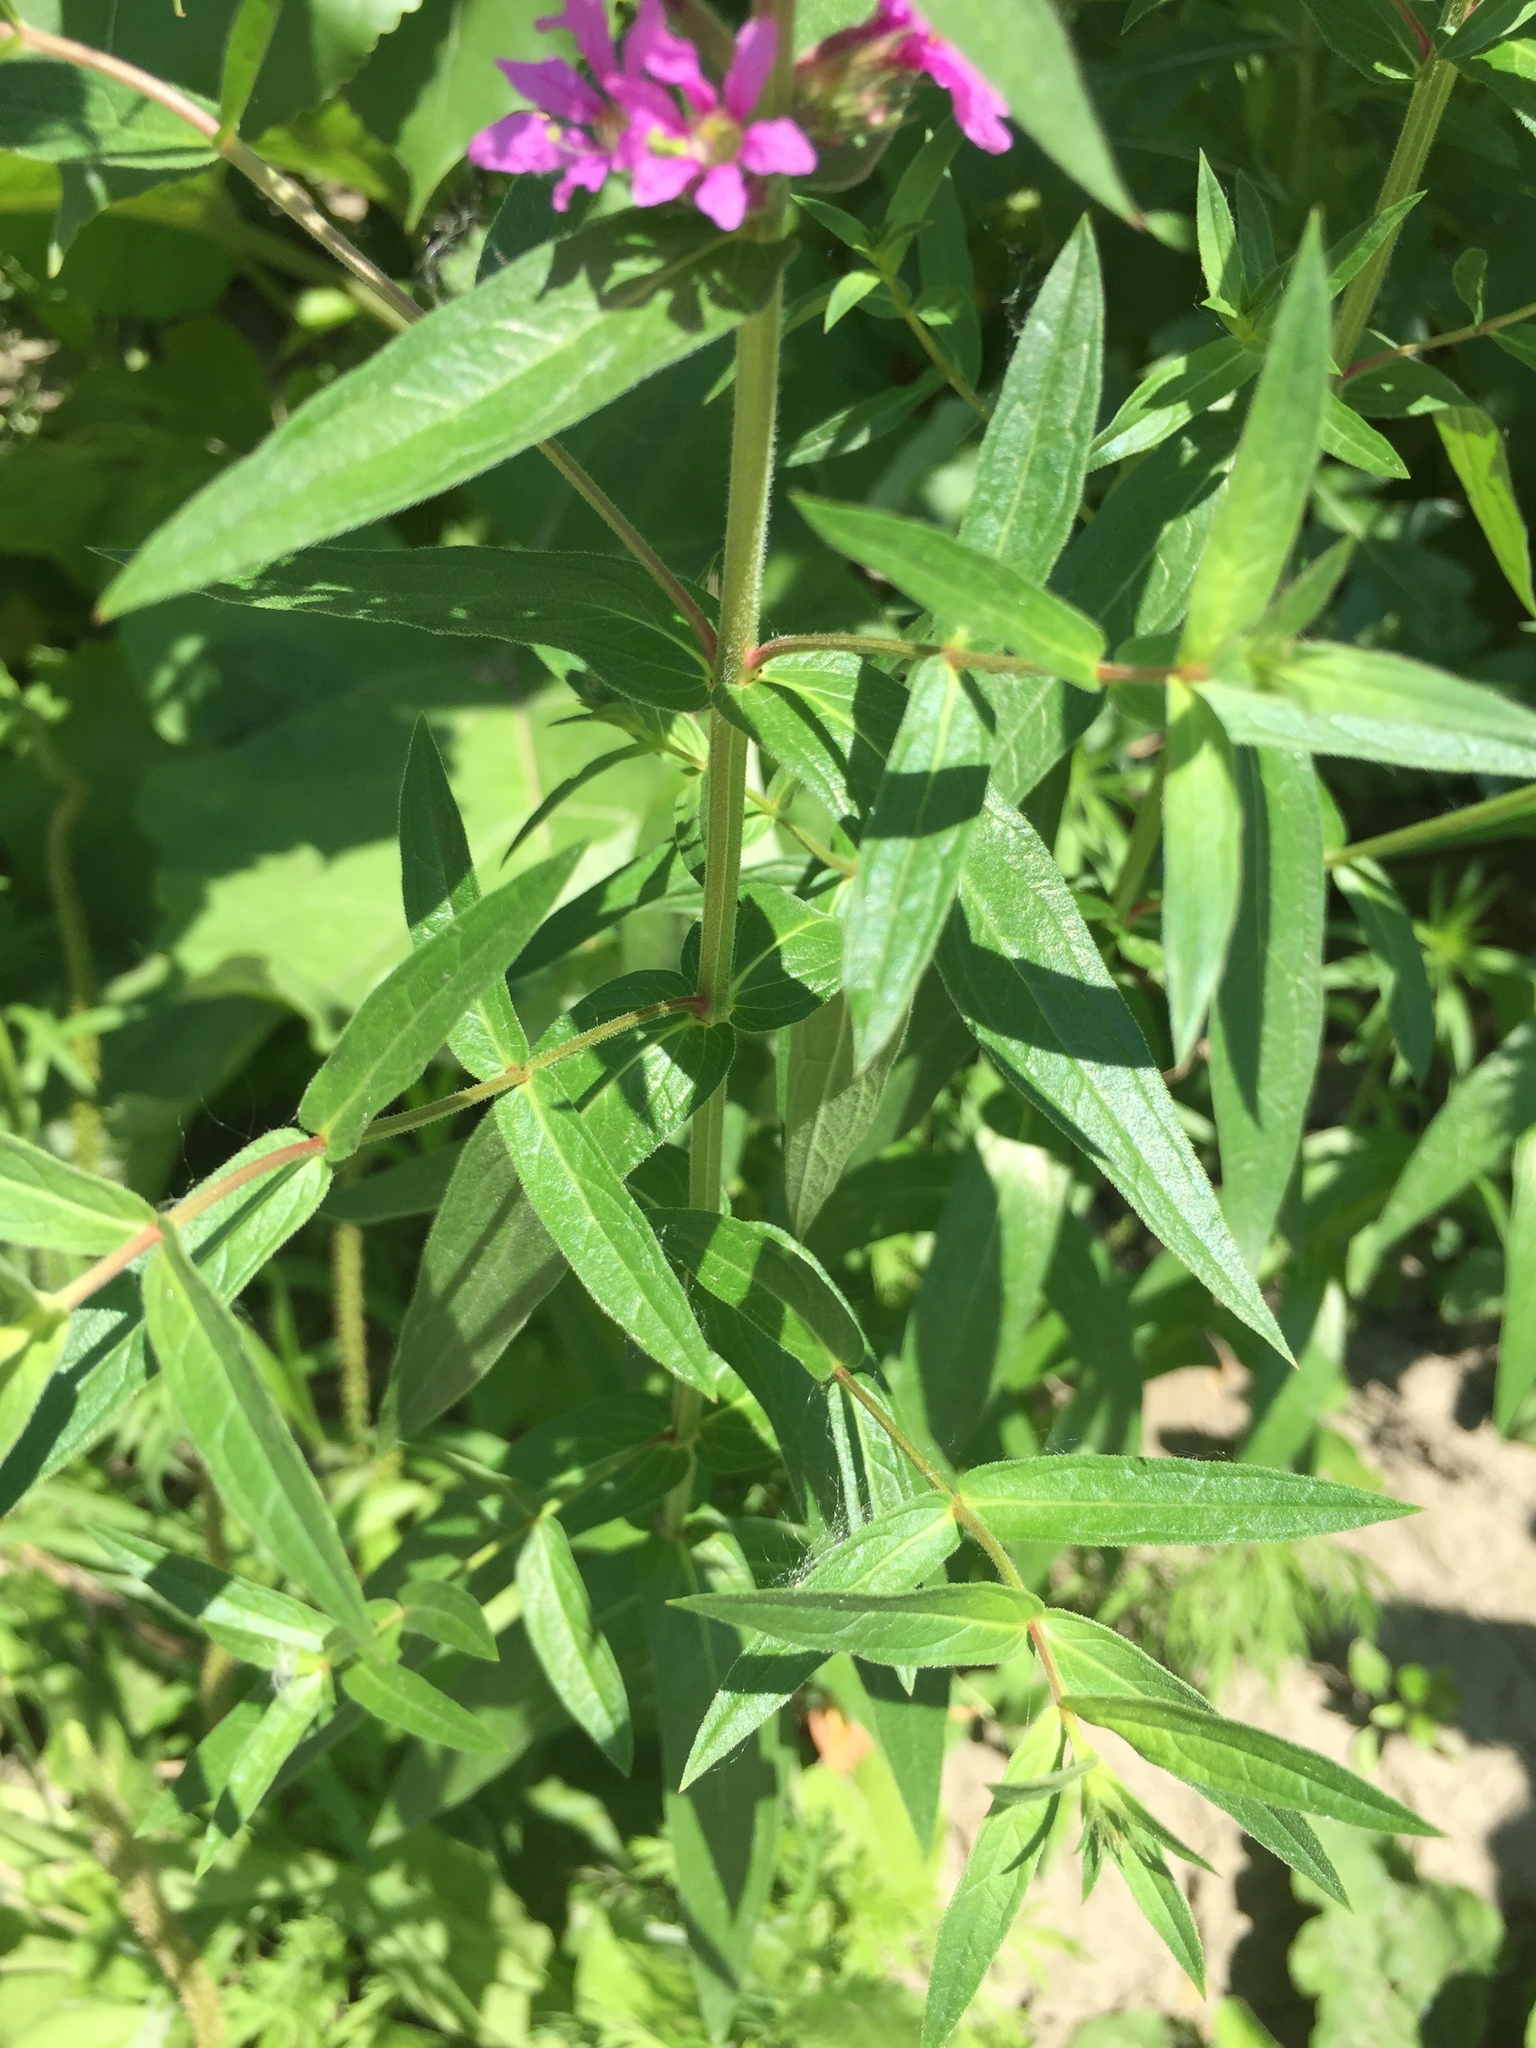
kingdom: Plantae
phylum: Tracheophyta
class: Magnoliopsida
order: Myrtales
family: Lythraceae
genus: Lythrum
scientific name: Lythrum salicaria
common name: Purple loosestrife
